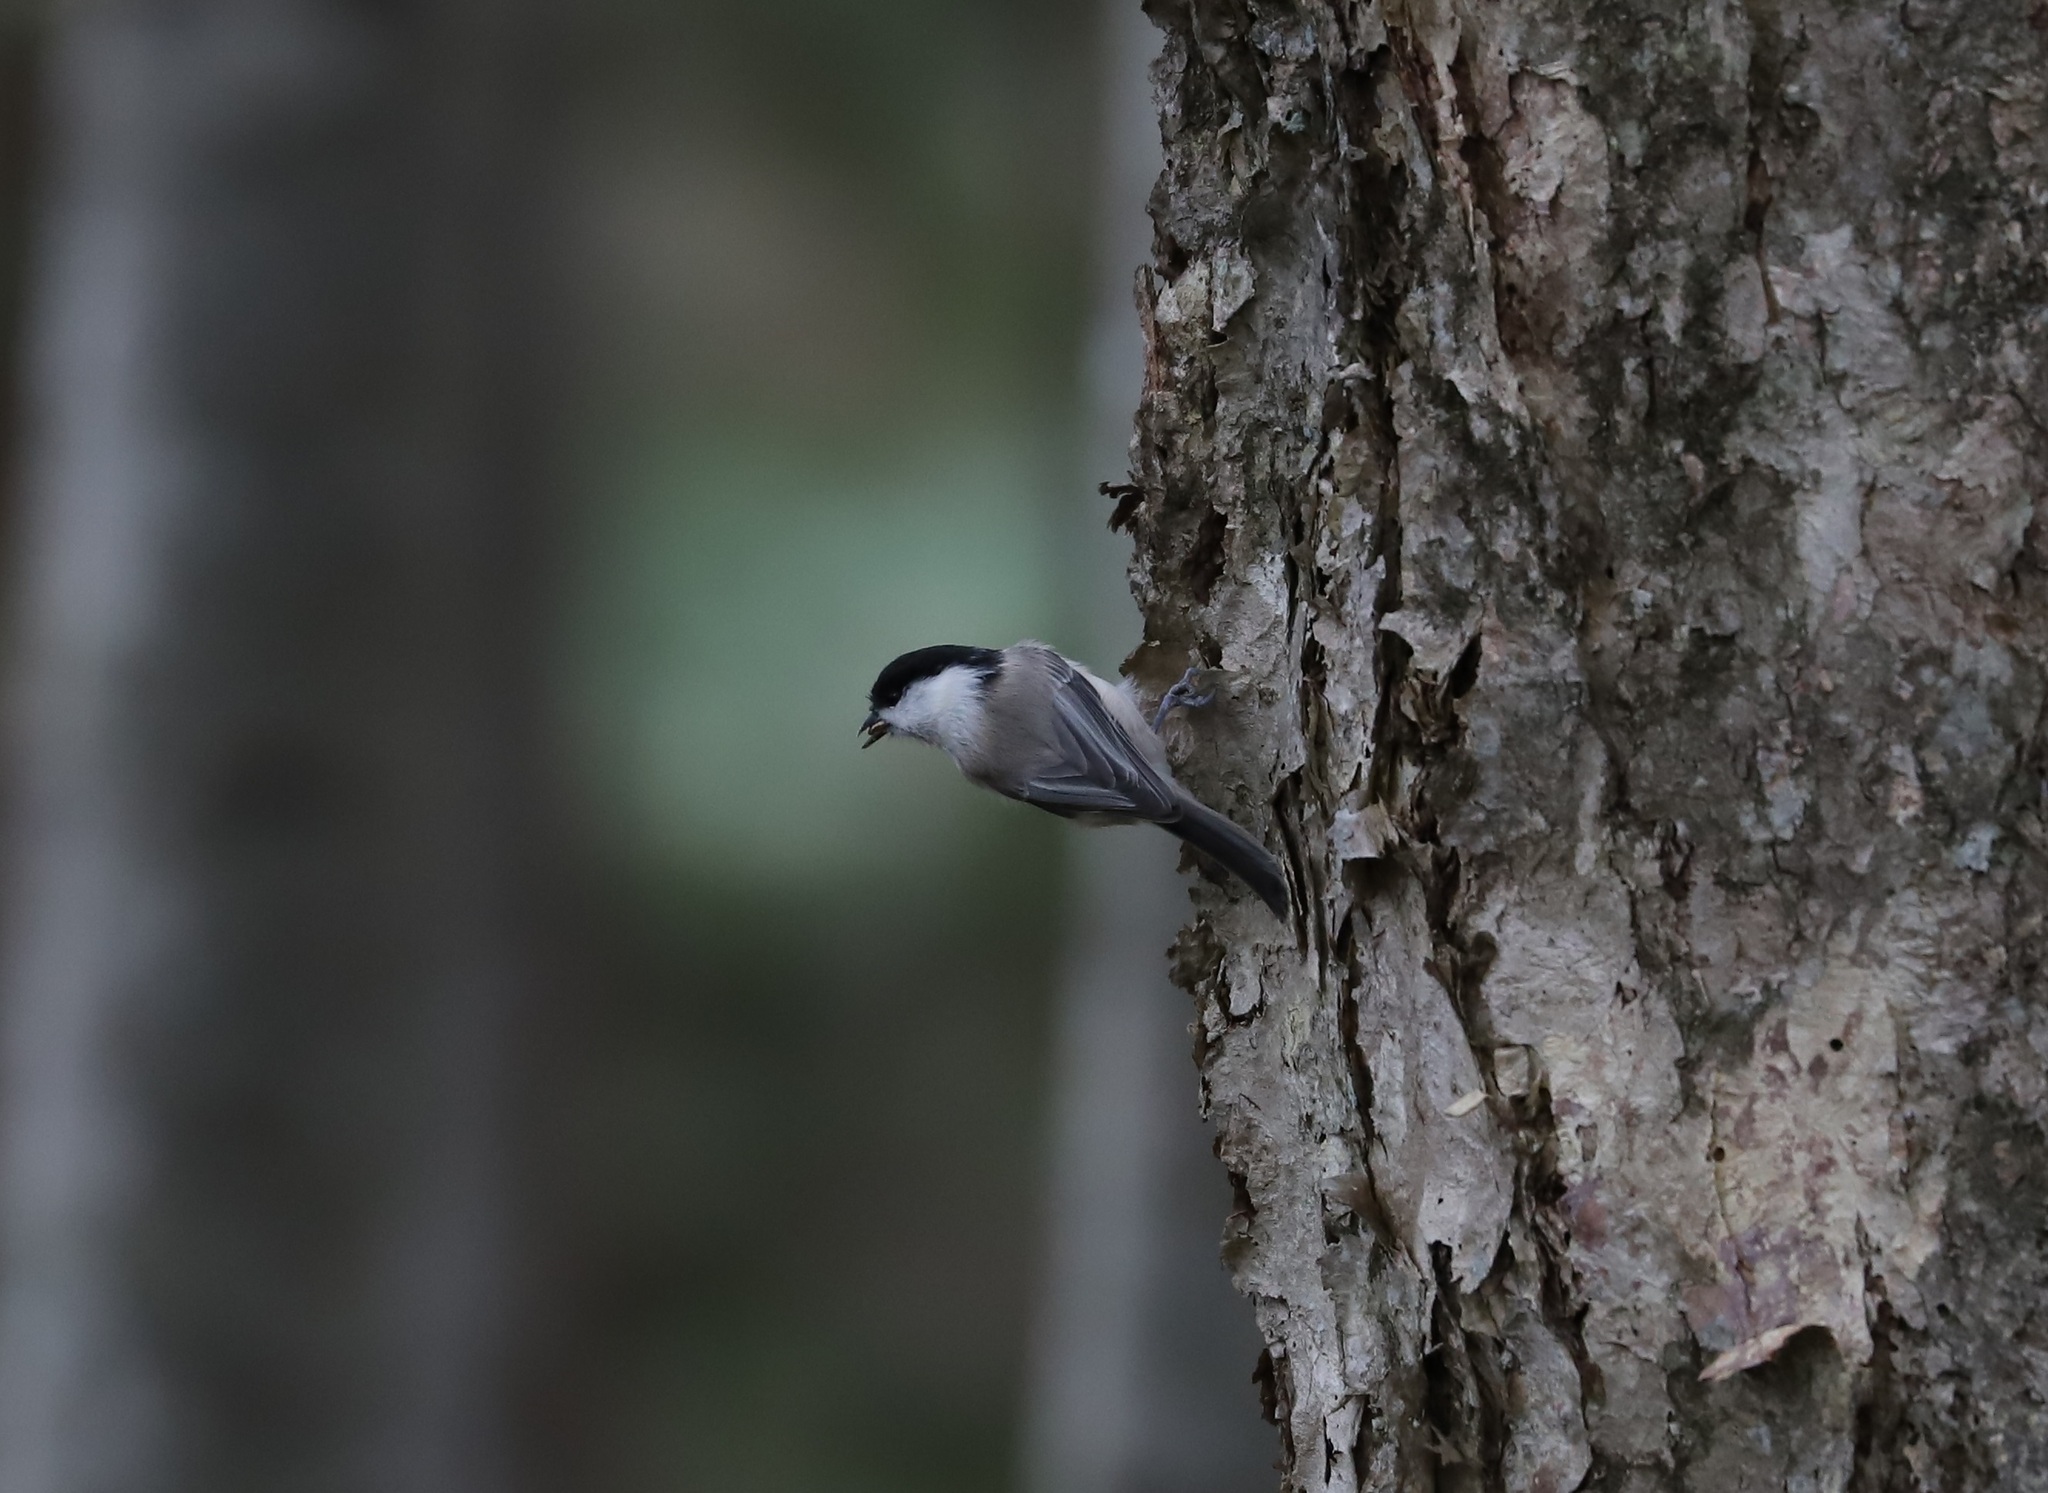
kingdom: Animalia
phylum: Chordata
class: Aves
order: Passeriformes
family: Paridae
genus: Poecile
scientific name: Poecile montanus
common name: Willow tit
